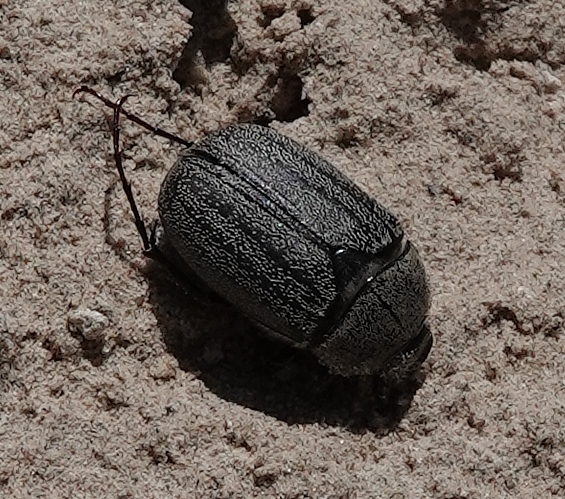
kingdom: Animalia
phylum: Arthropoda
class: Insecta
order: Coleoptera
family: Scarabaeidae
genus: Phyllophaga
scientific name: Phyllophaga lanceolata
